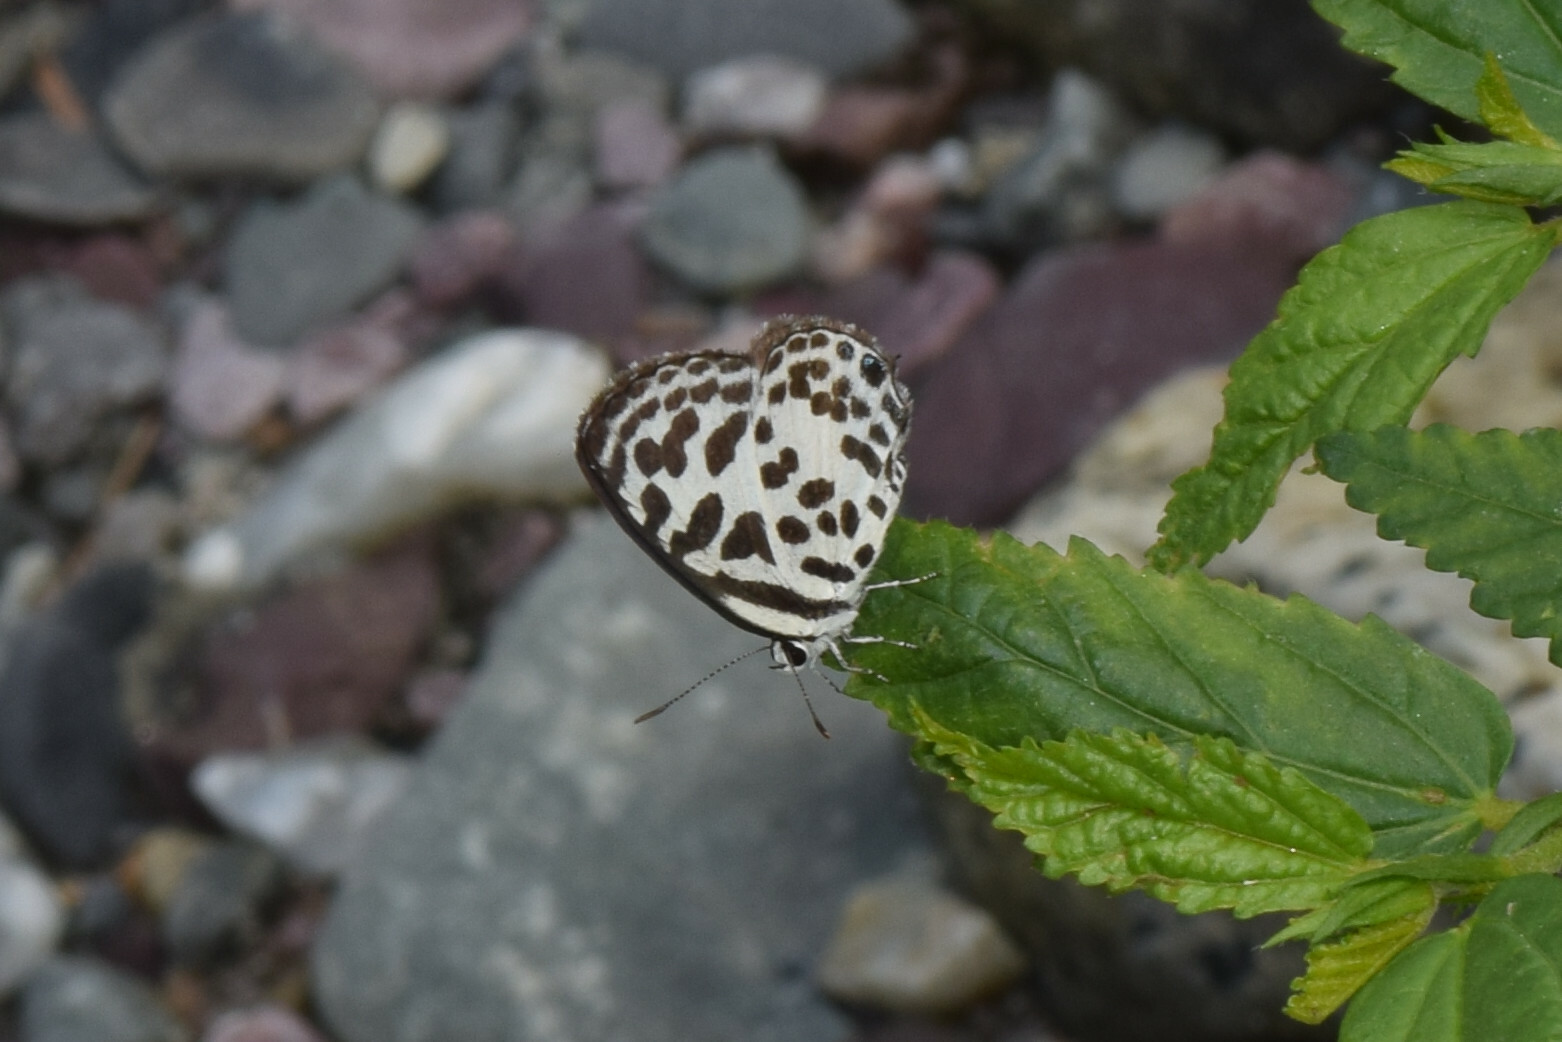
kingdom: Animalia
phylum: Arthropoda
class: Insecta
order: Lepidoptera
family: Lycaenidae
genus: Castalius
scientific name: Castalius rosimon
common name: Common pierrot
